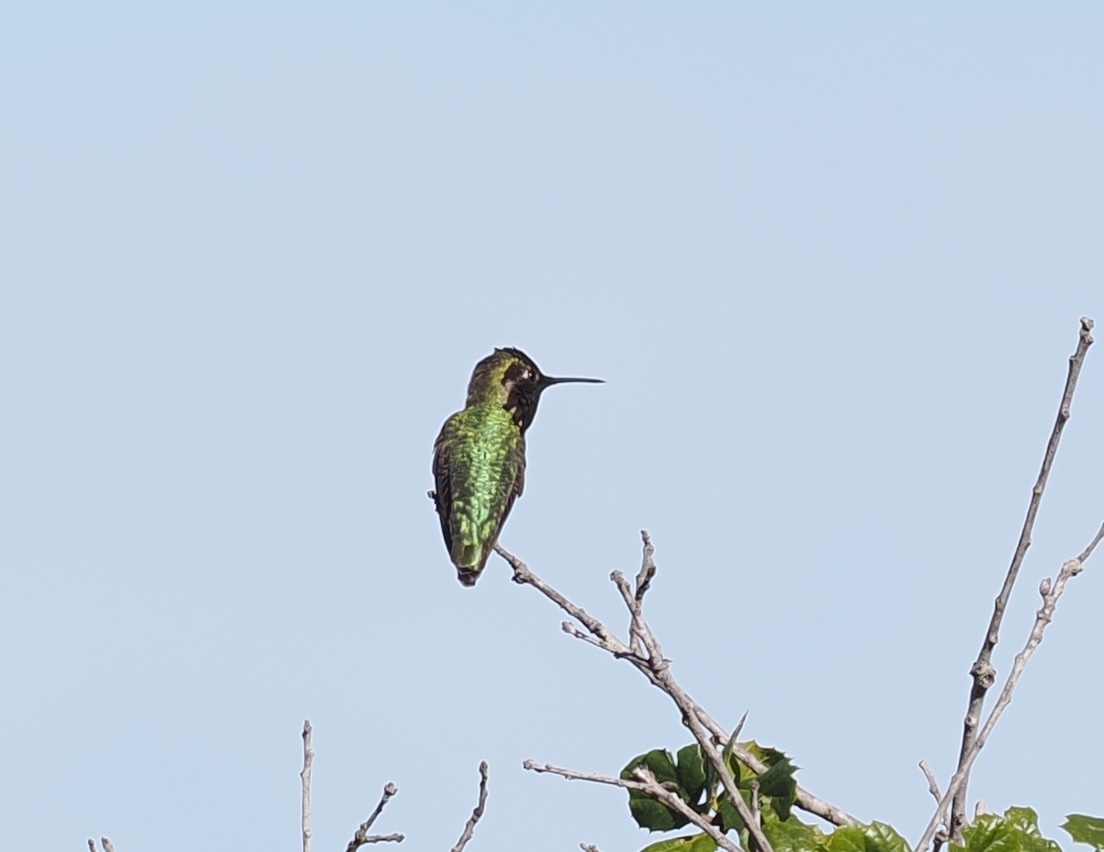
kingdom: Animalia
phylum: Chordata
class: Aves
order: Apodiformes
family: Trochilidae
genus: Calypte
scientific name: Calypte anna
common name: Anna's hummingbird
